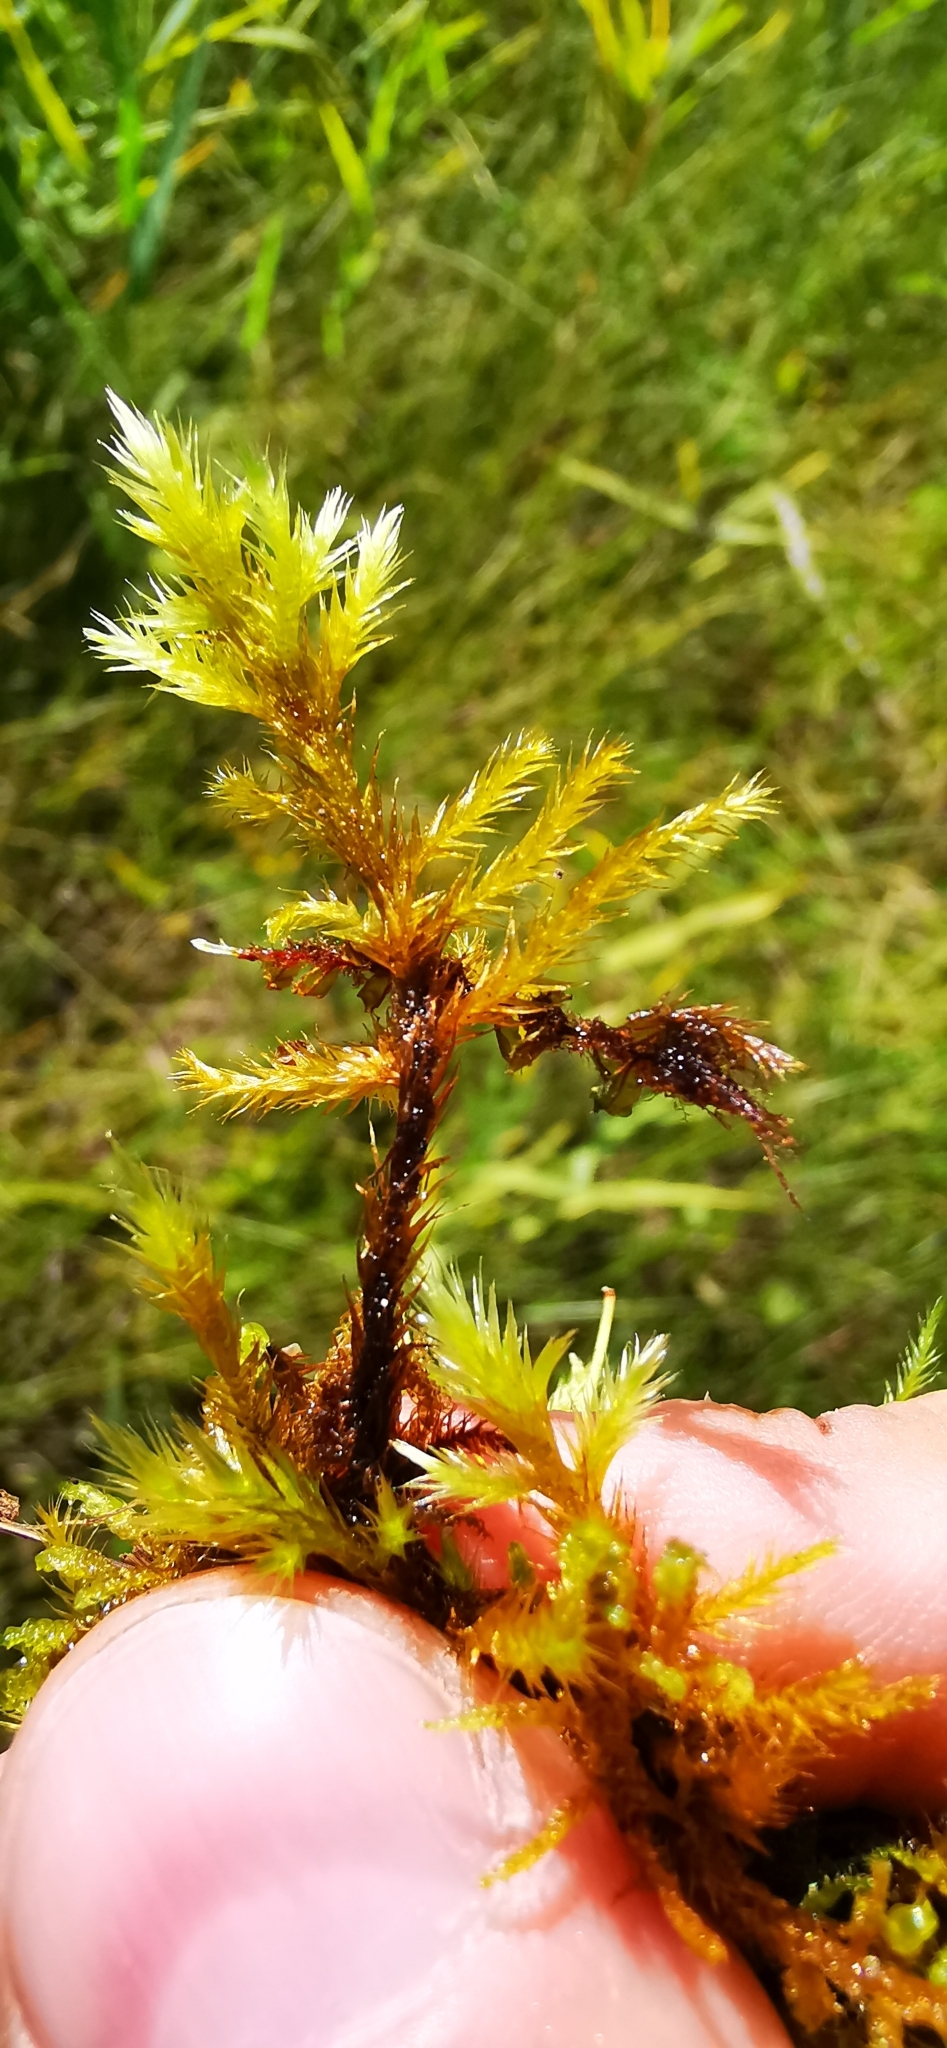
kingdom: Plantae
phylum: Bryophyta
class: Bryopsida
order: Hypnales
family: Amblystegiaceae
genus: Tomentypnum
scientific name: Tomentypnum nitens
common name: Golden fuzzy fen moss
